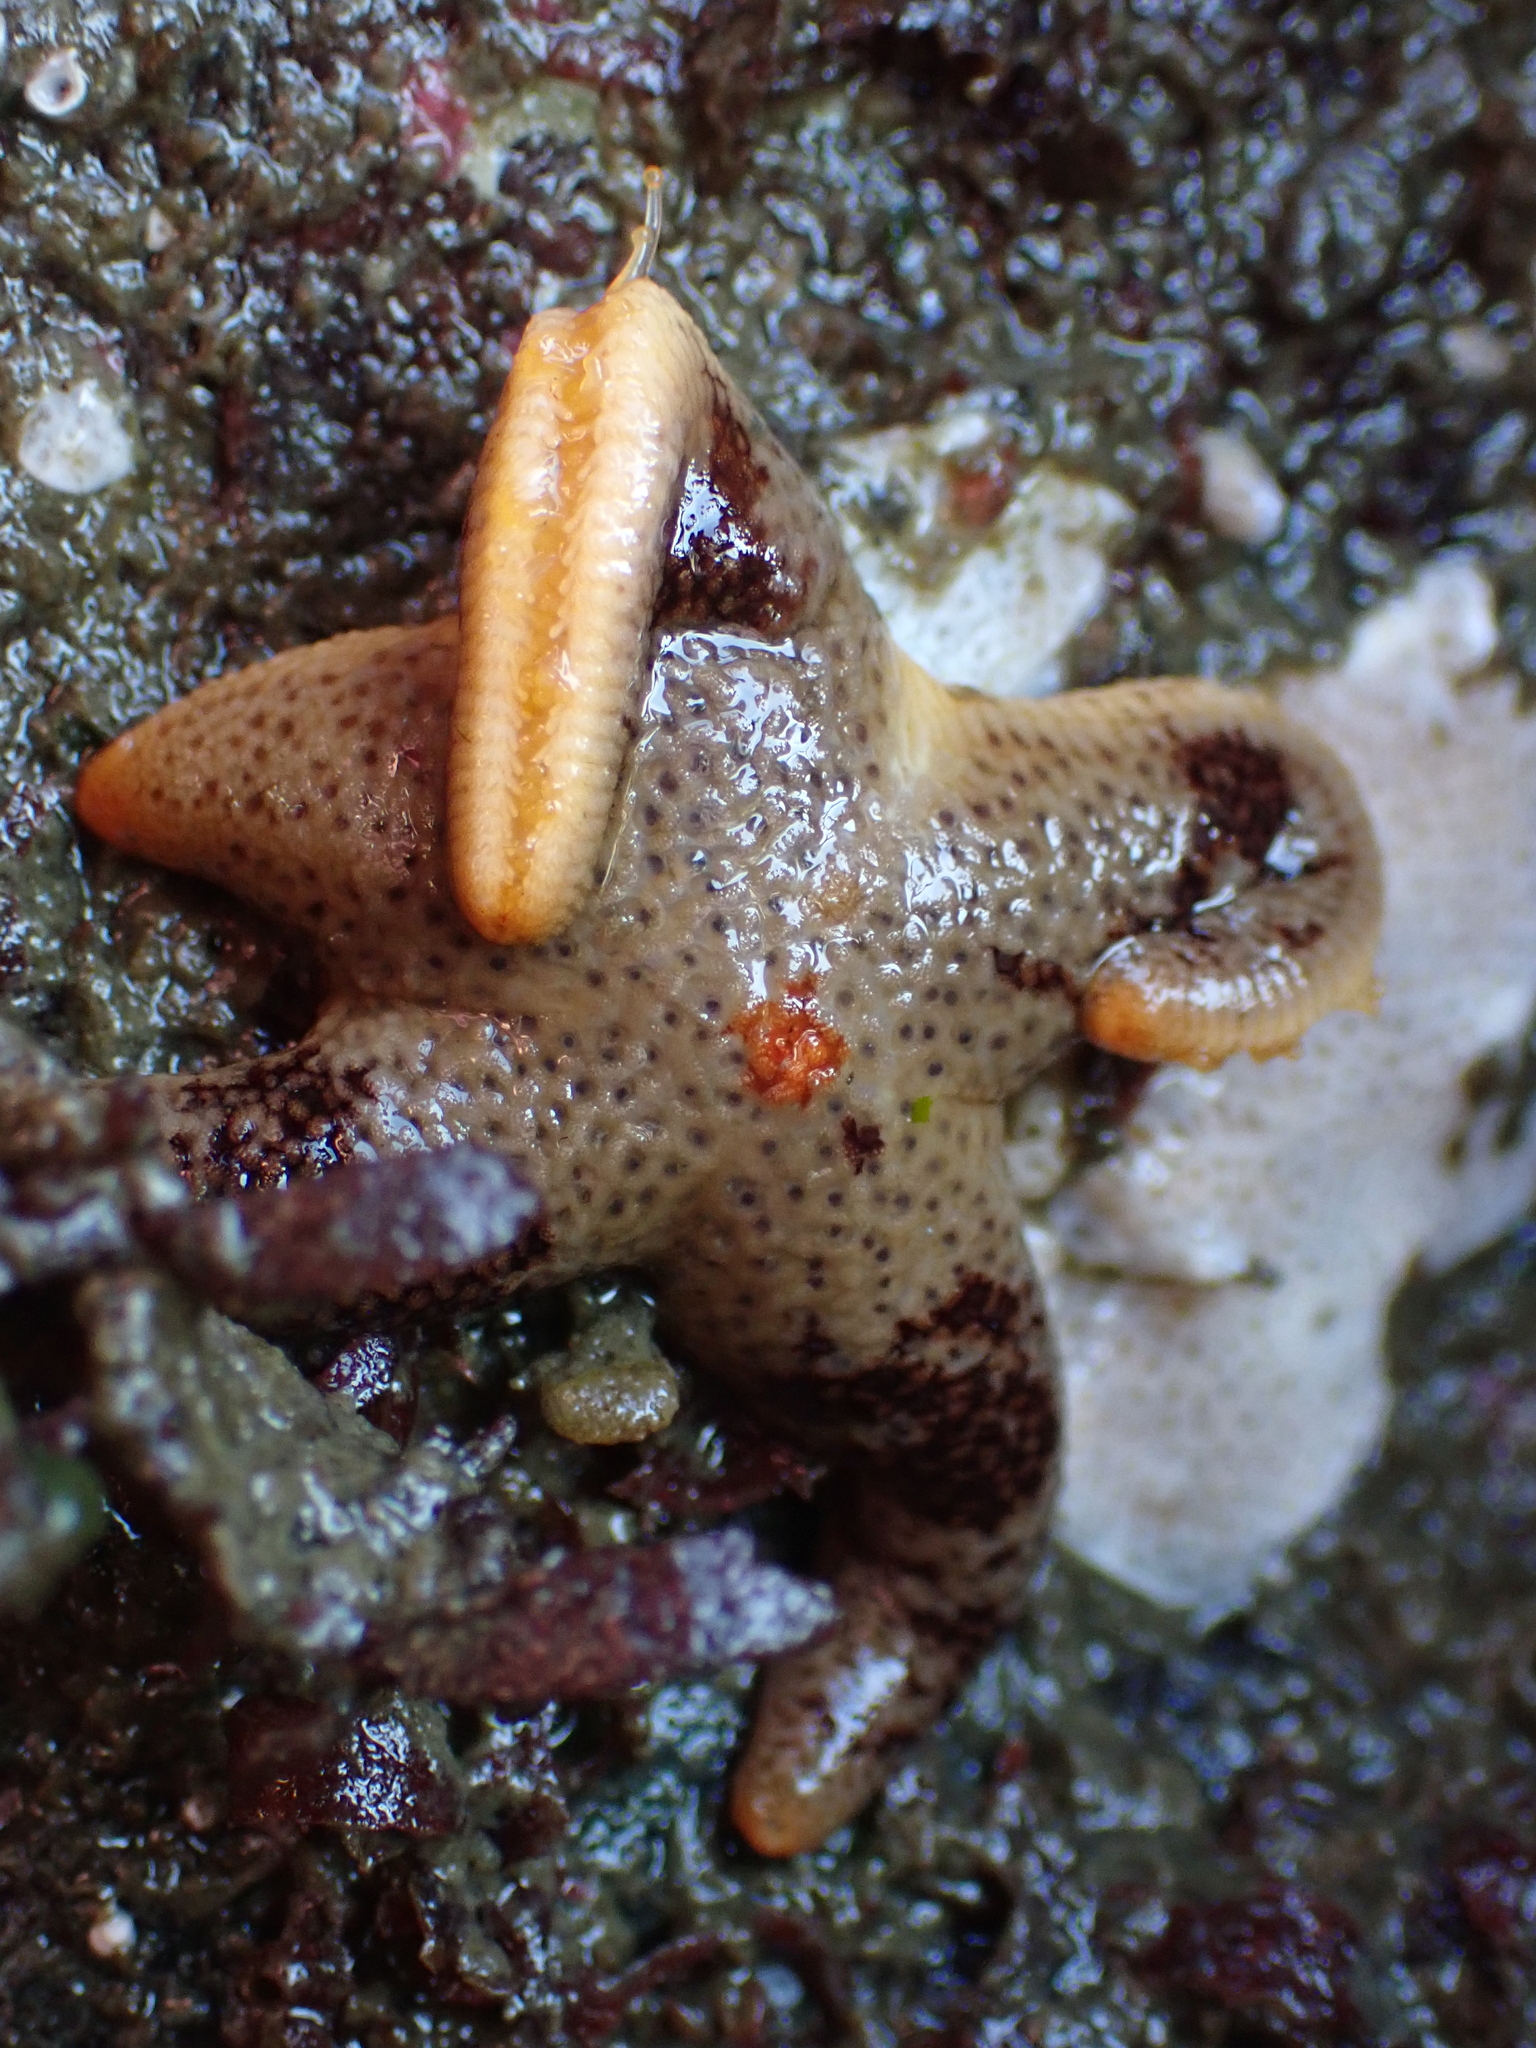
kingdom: Animalia
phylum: Echinodermata
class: Asteroidea
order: Spinulosida
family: Echinasteridae
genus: Henricia
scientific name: Henricia pumila
